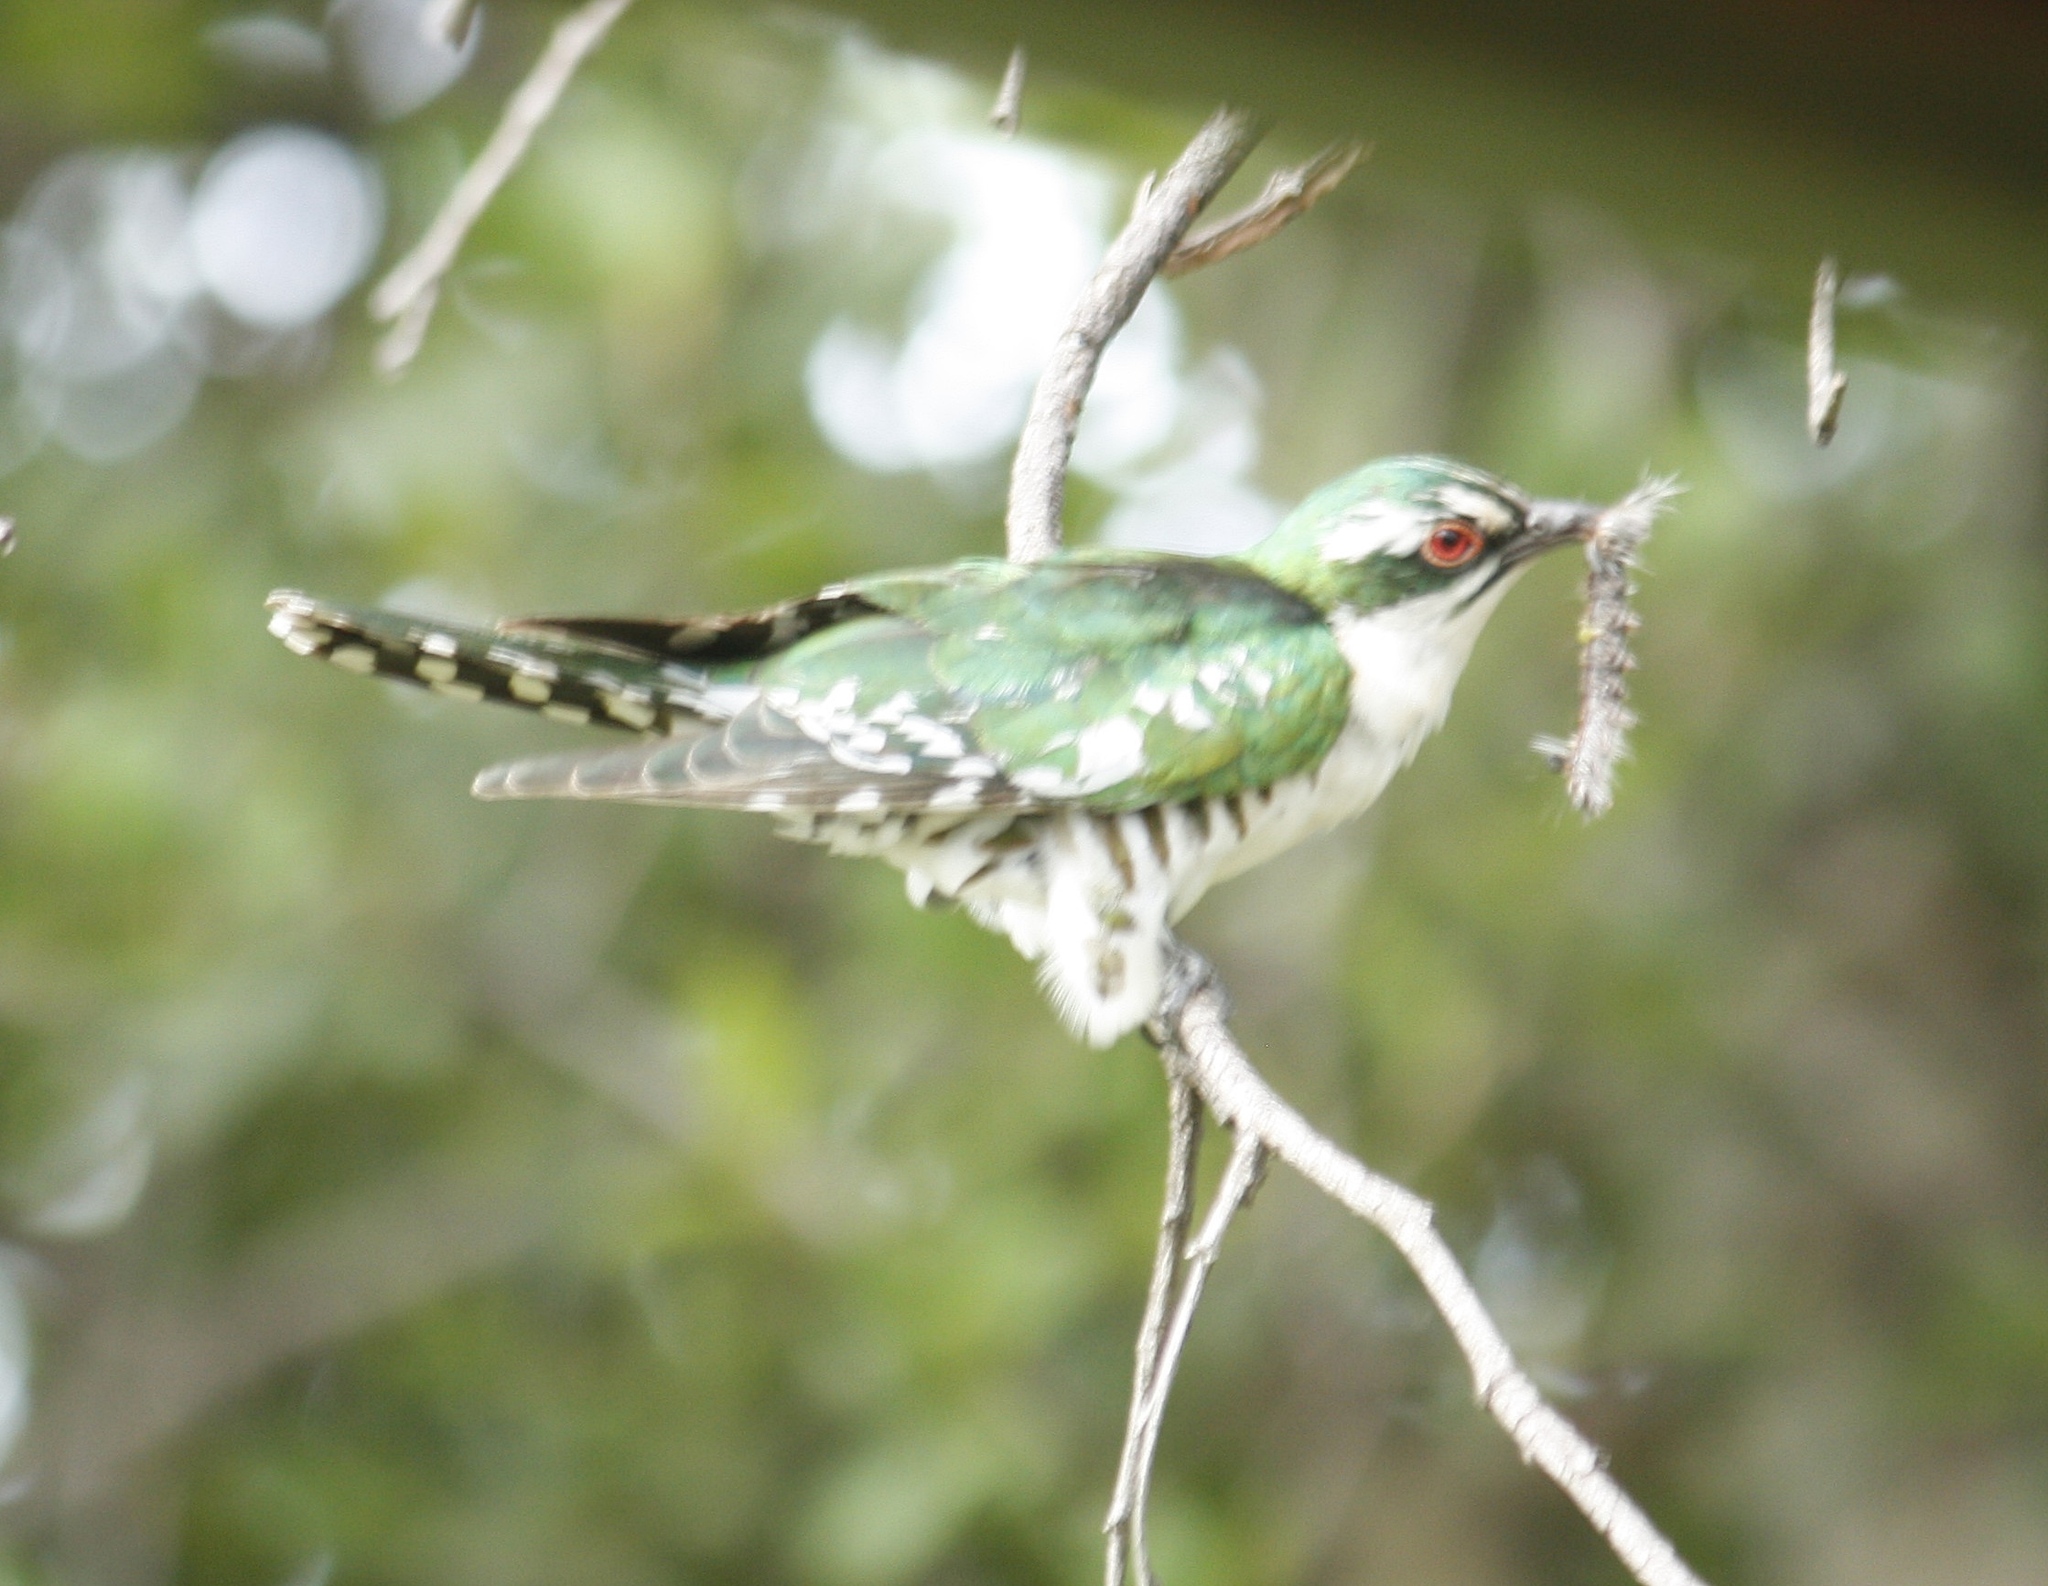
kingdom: Animalia
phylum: Chordata
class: Aves
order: Cuculiformes
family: Cuculidae
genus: Chrysococcyx
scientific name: Chrysococcyx caprius
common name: Diederik cuckoo
